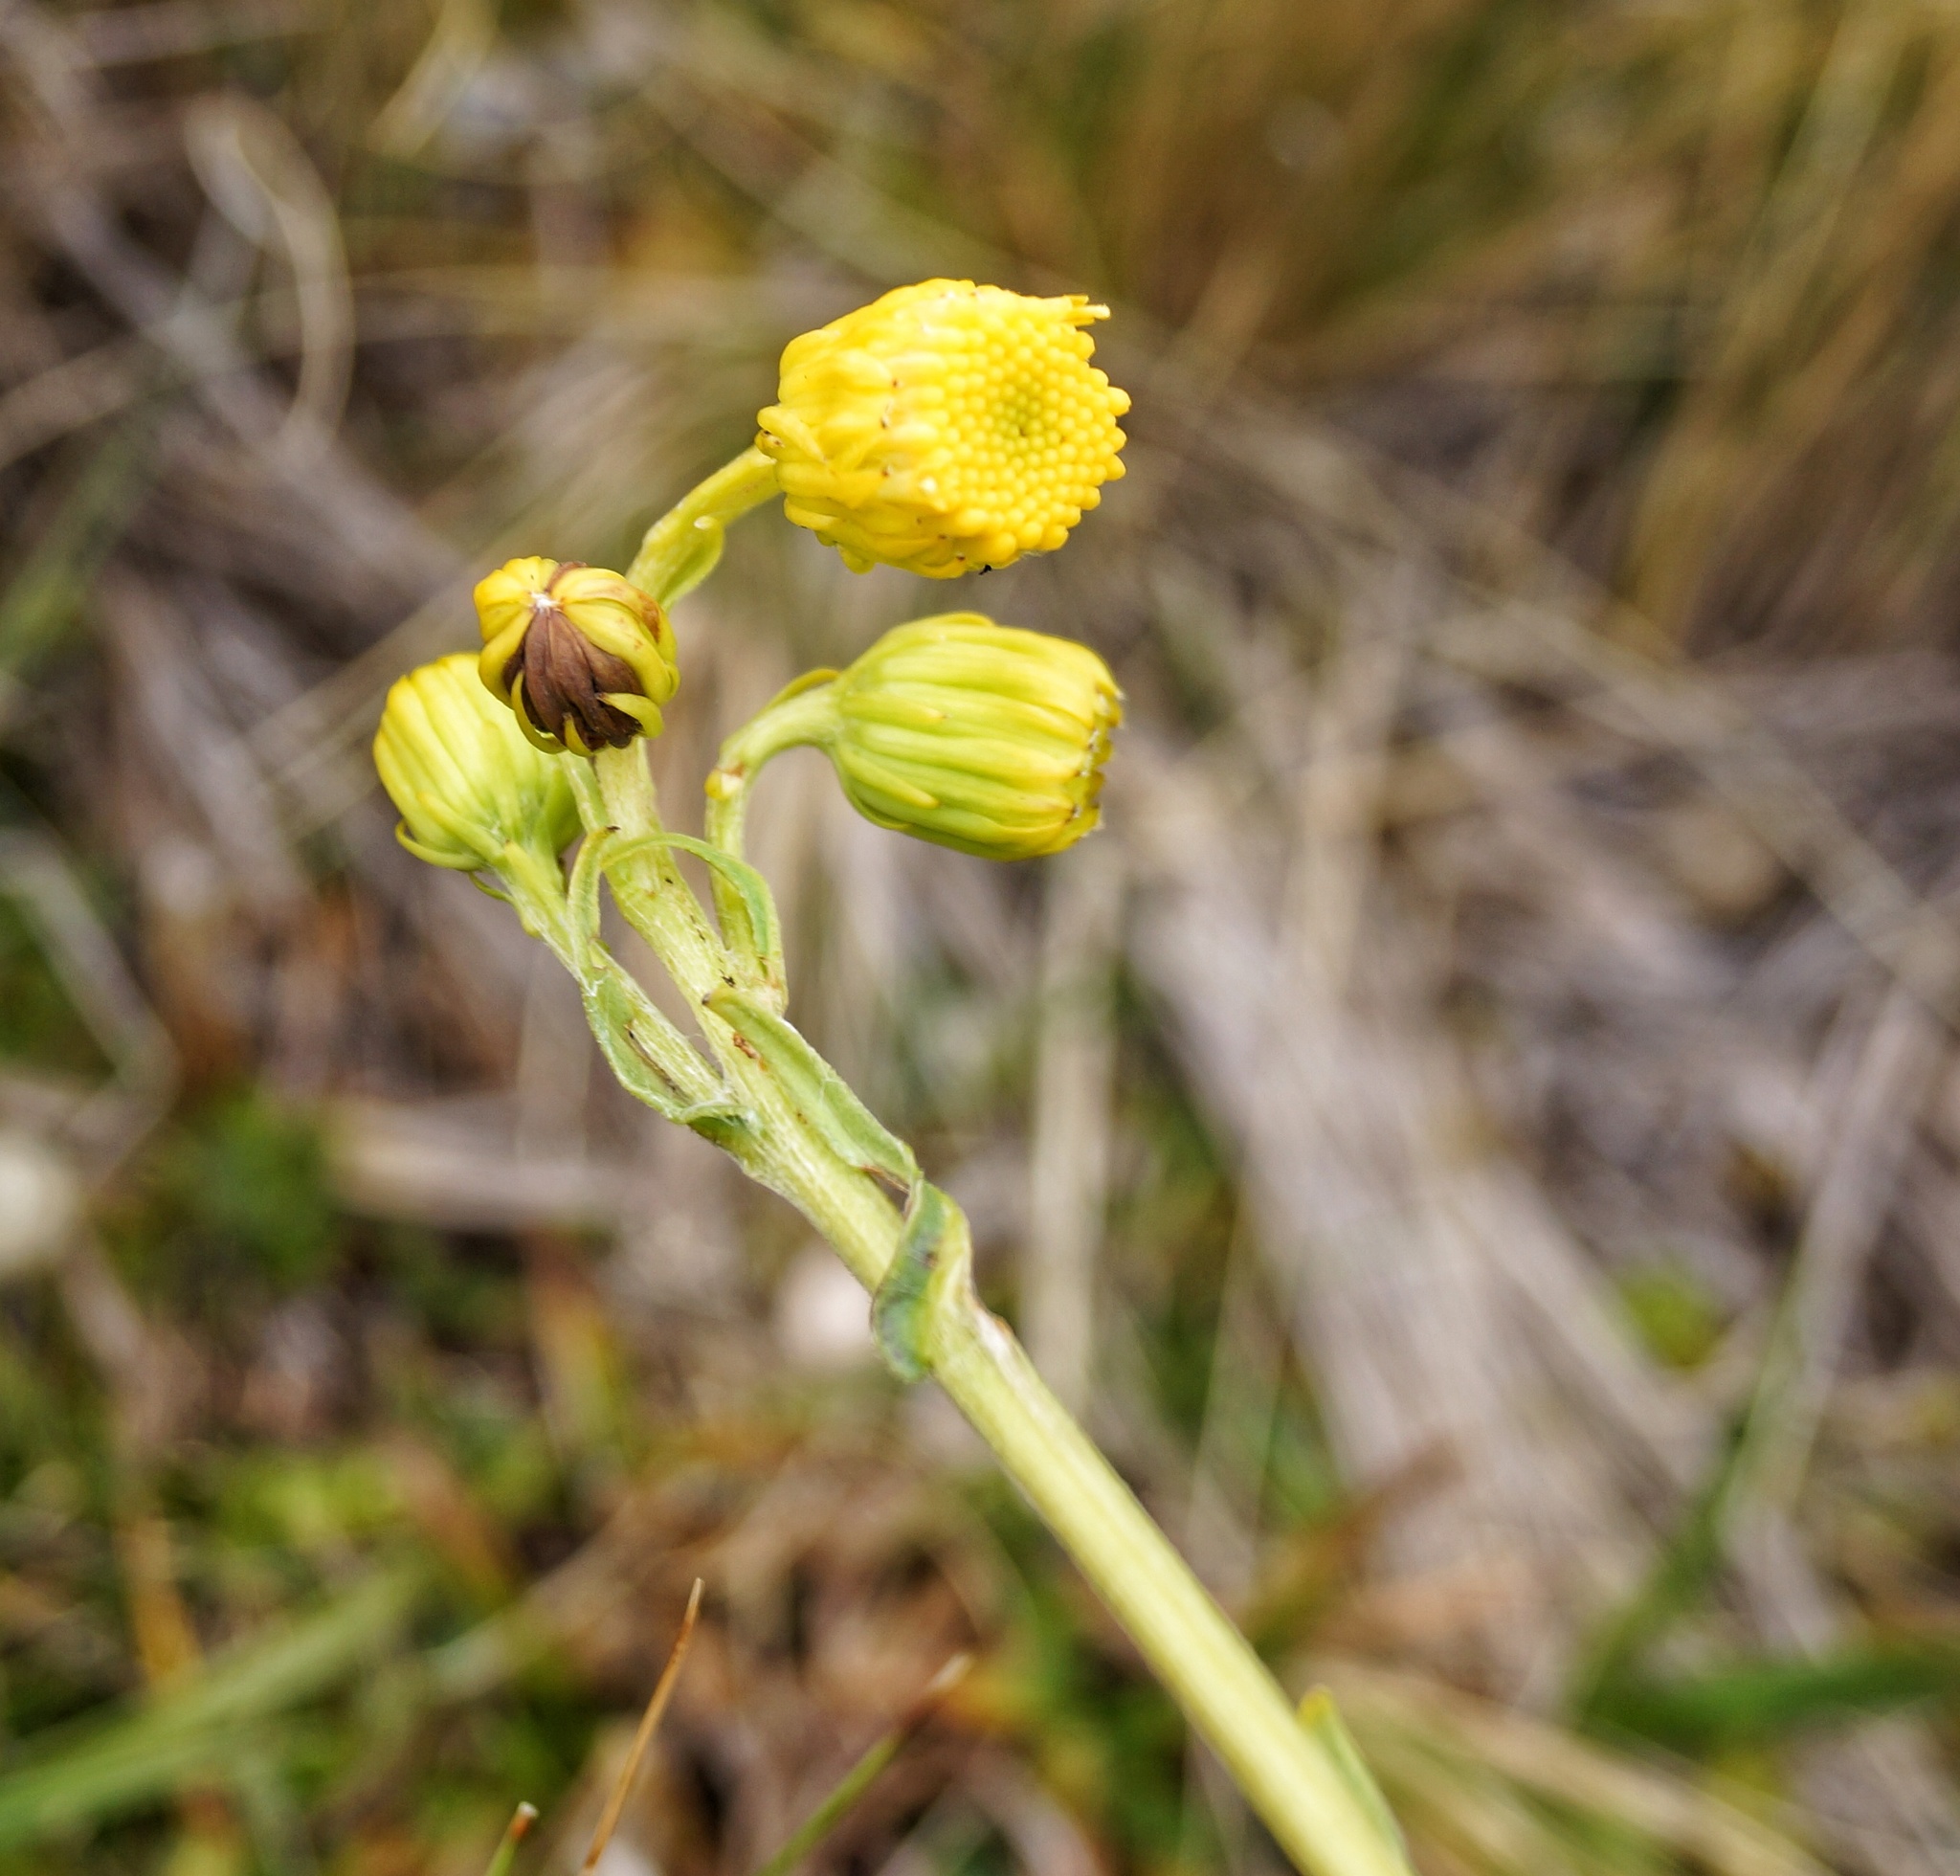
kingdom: Plantae
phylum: Tracheophyta
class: Magnoliopsida
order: Asterales
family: Asteraceae
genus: Senecio
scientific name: Senecio chionogeton
